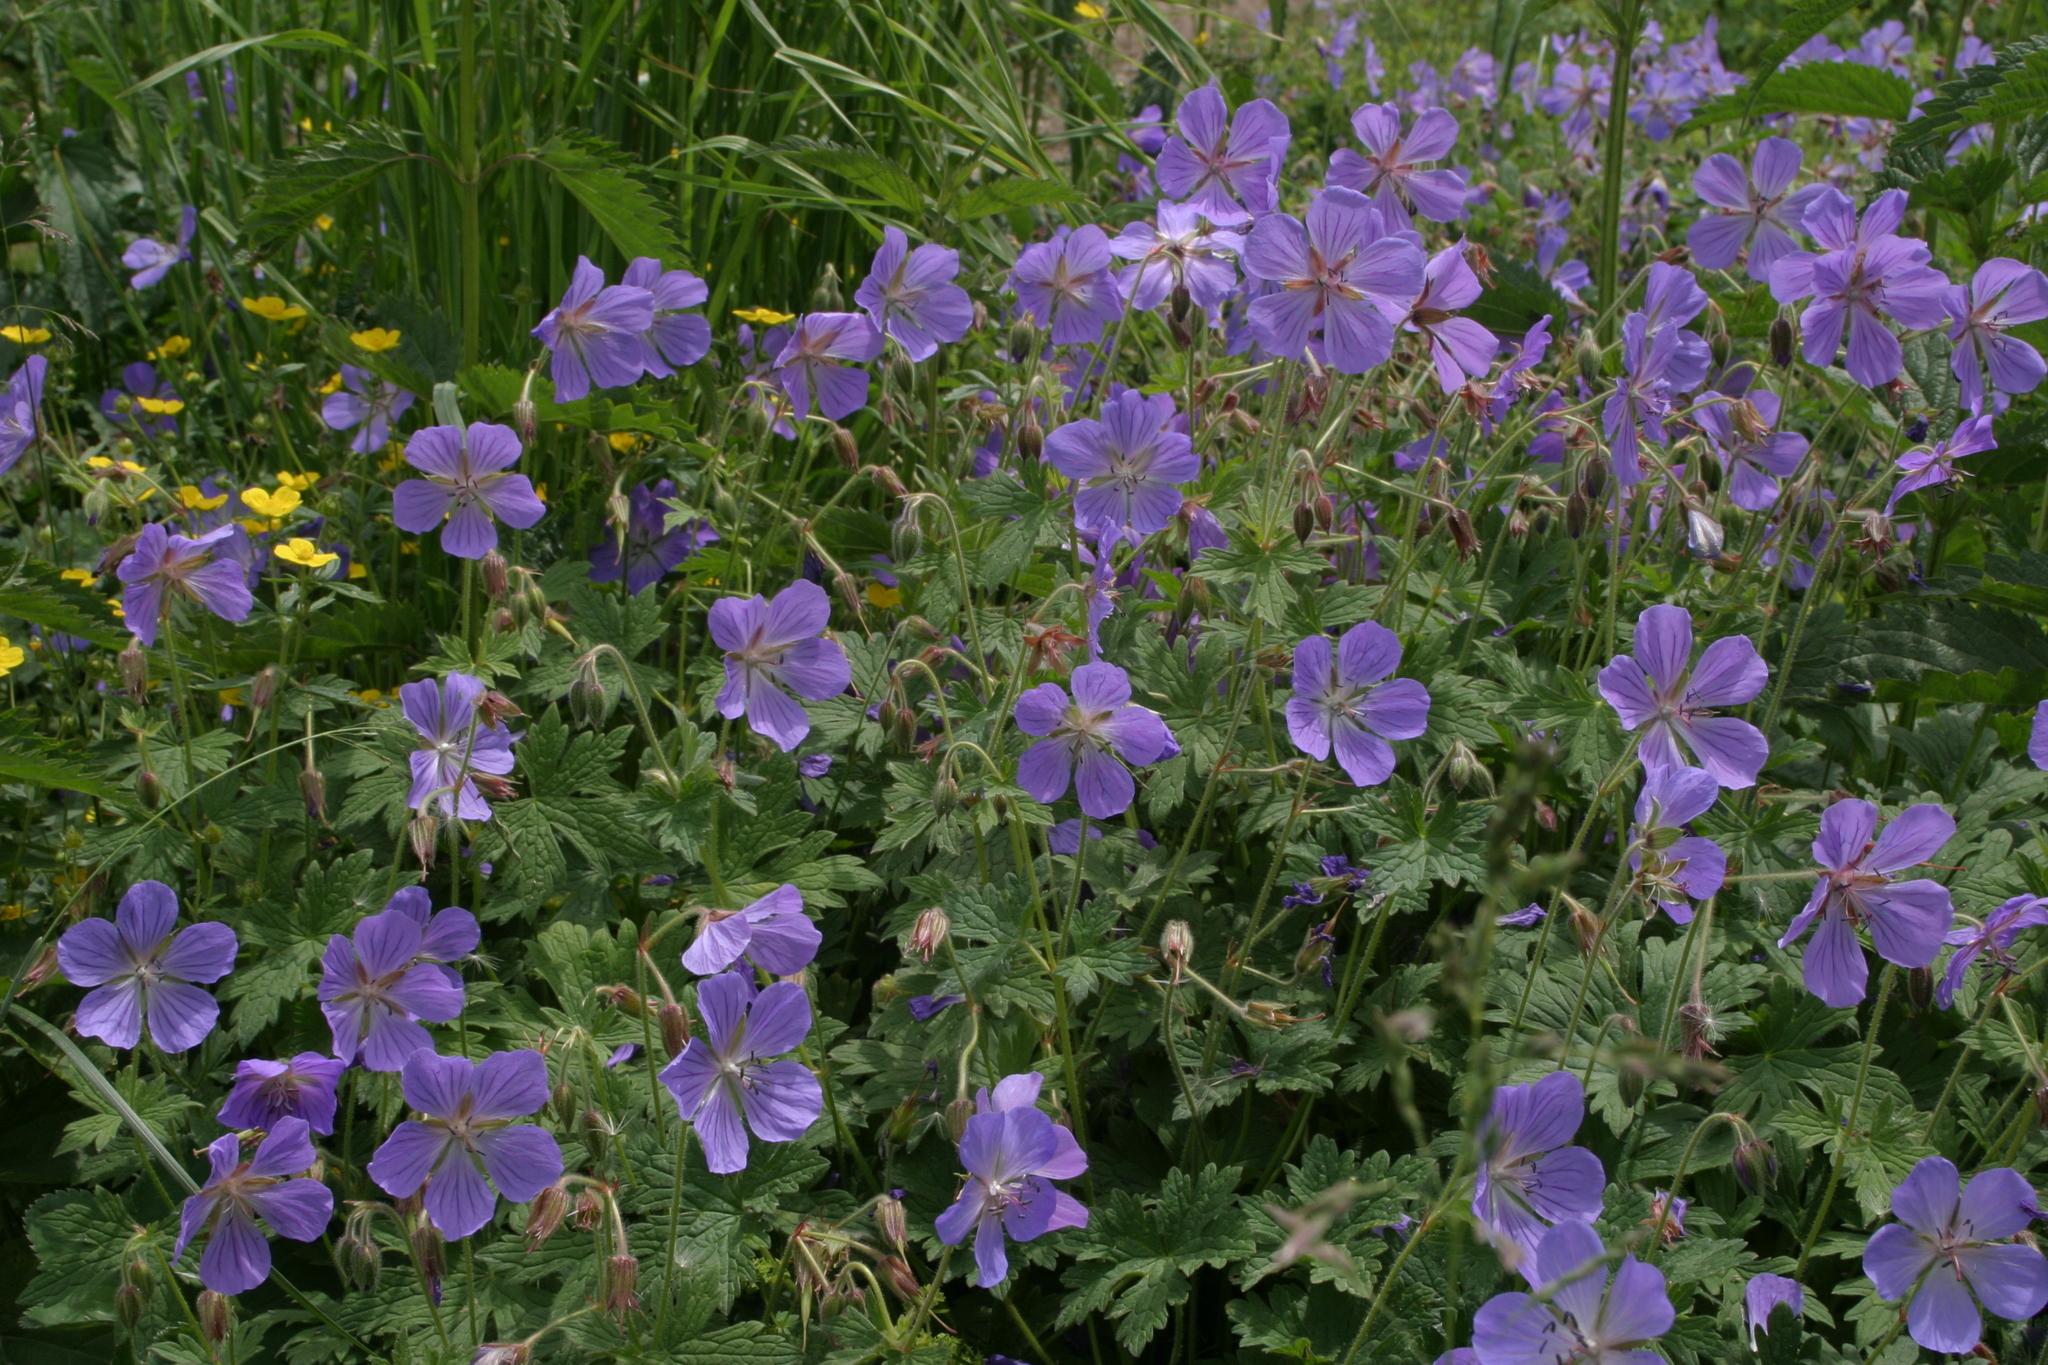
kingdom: Plantae
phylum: Tracheophyta
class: Magnoliopsida
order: Geraniales
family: Geraniaceae
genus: Geranium
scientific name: Geranium pratense
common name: Meadow crane's-bill
